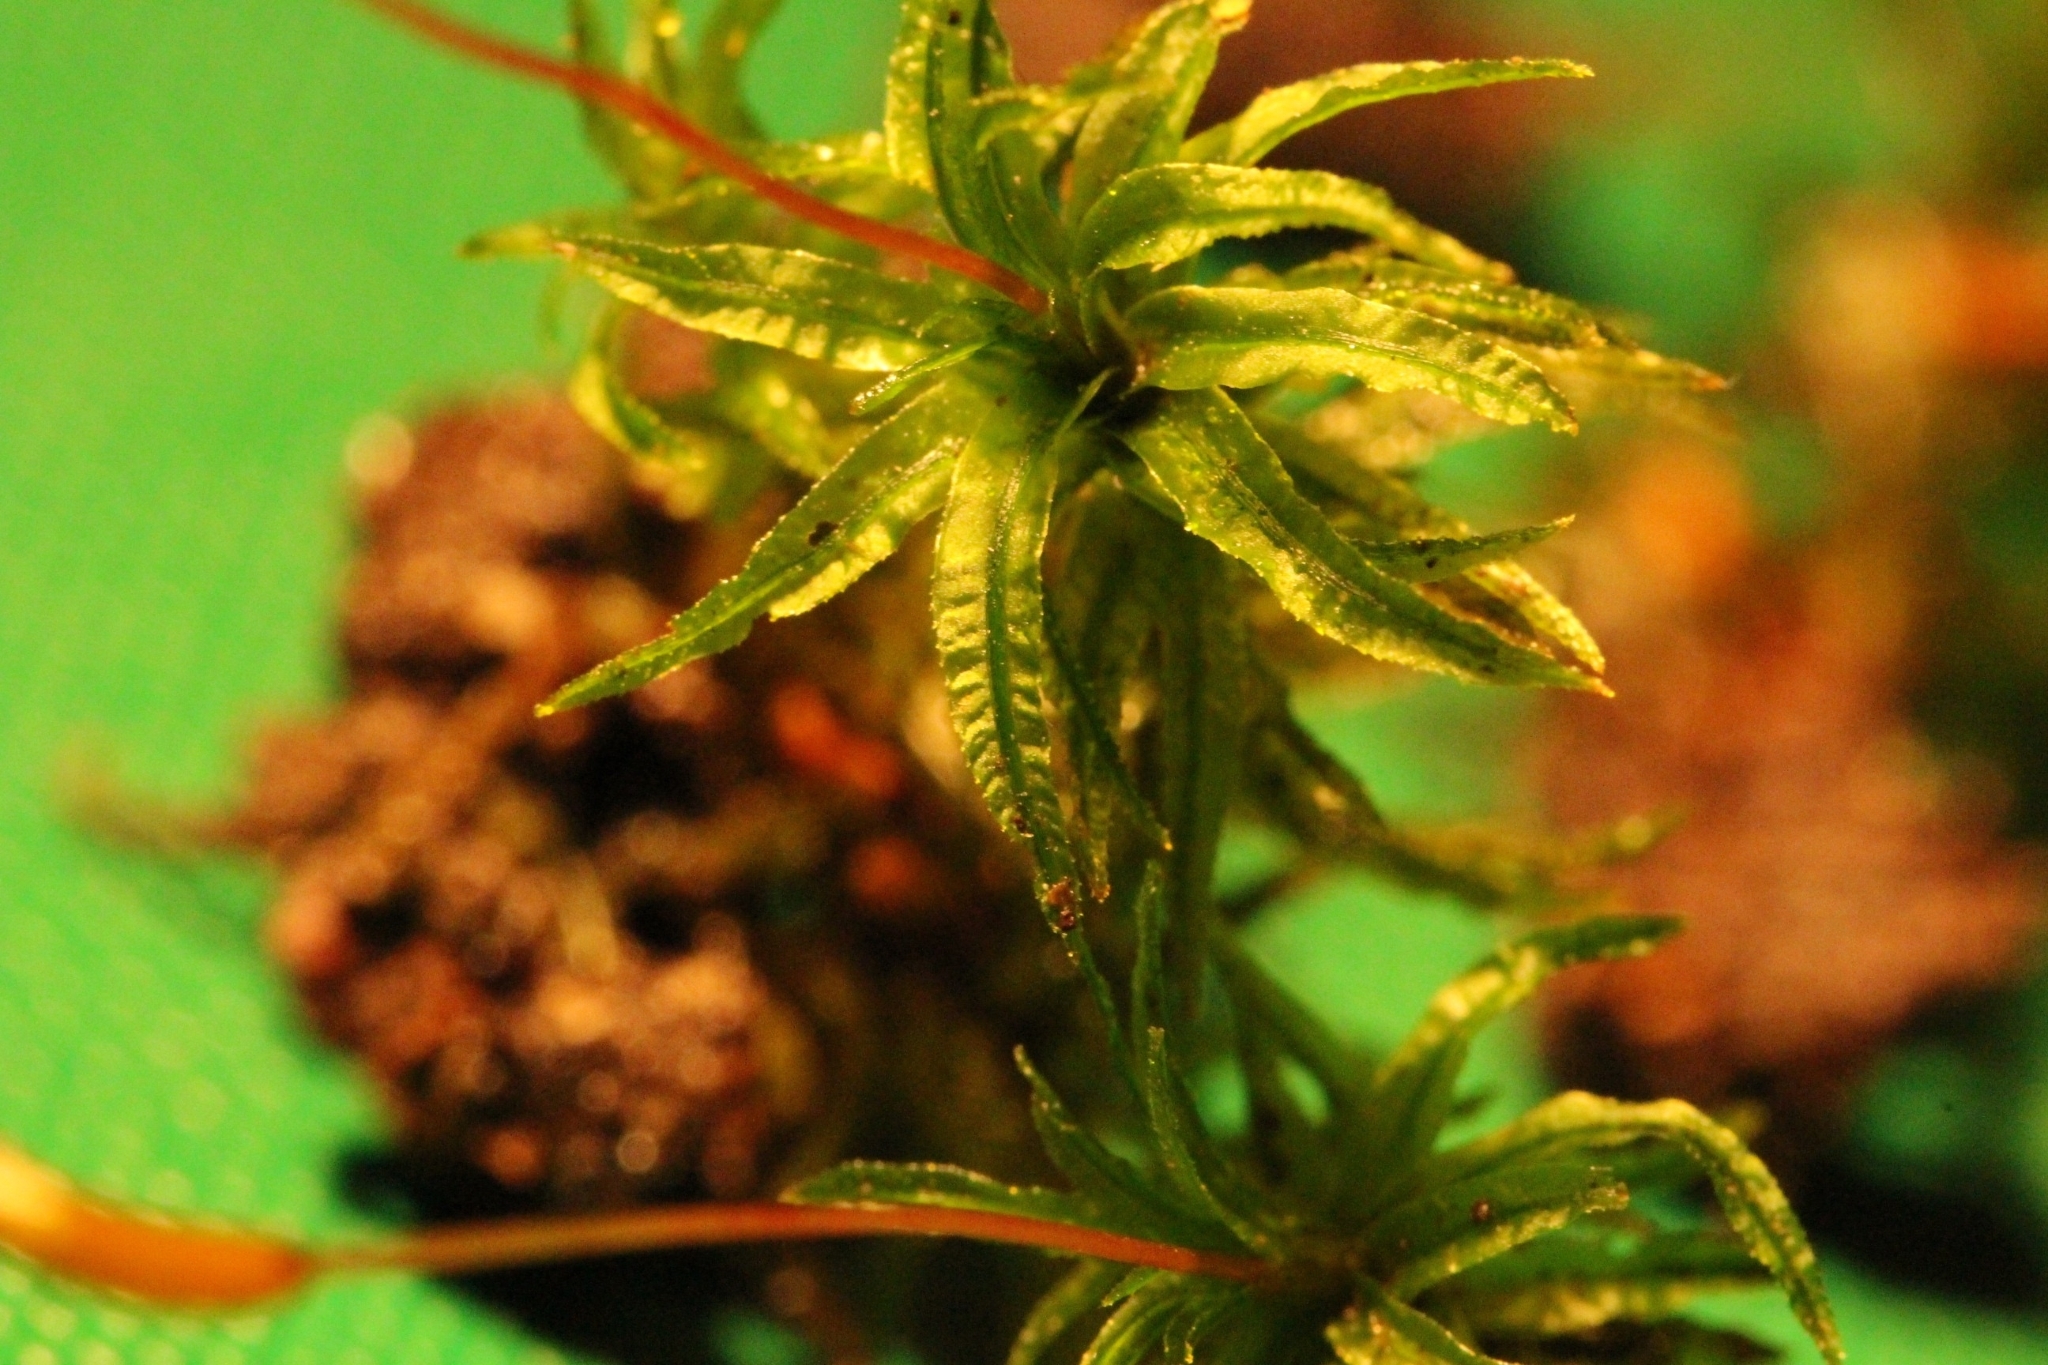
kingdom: Plantae
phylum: Bryophyta
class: Polytrichopsida
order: Polytrichales
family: Polytrichaceae
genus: Atrichum
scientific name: Atrichum undulatum
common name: Common smoothcap
